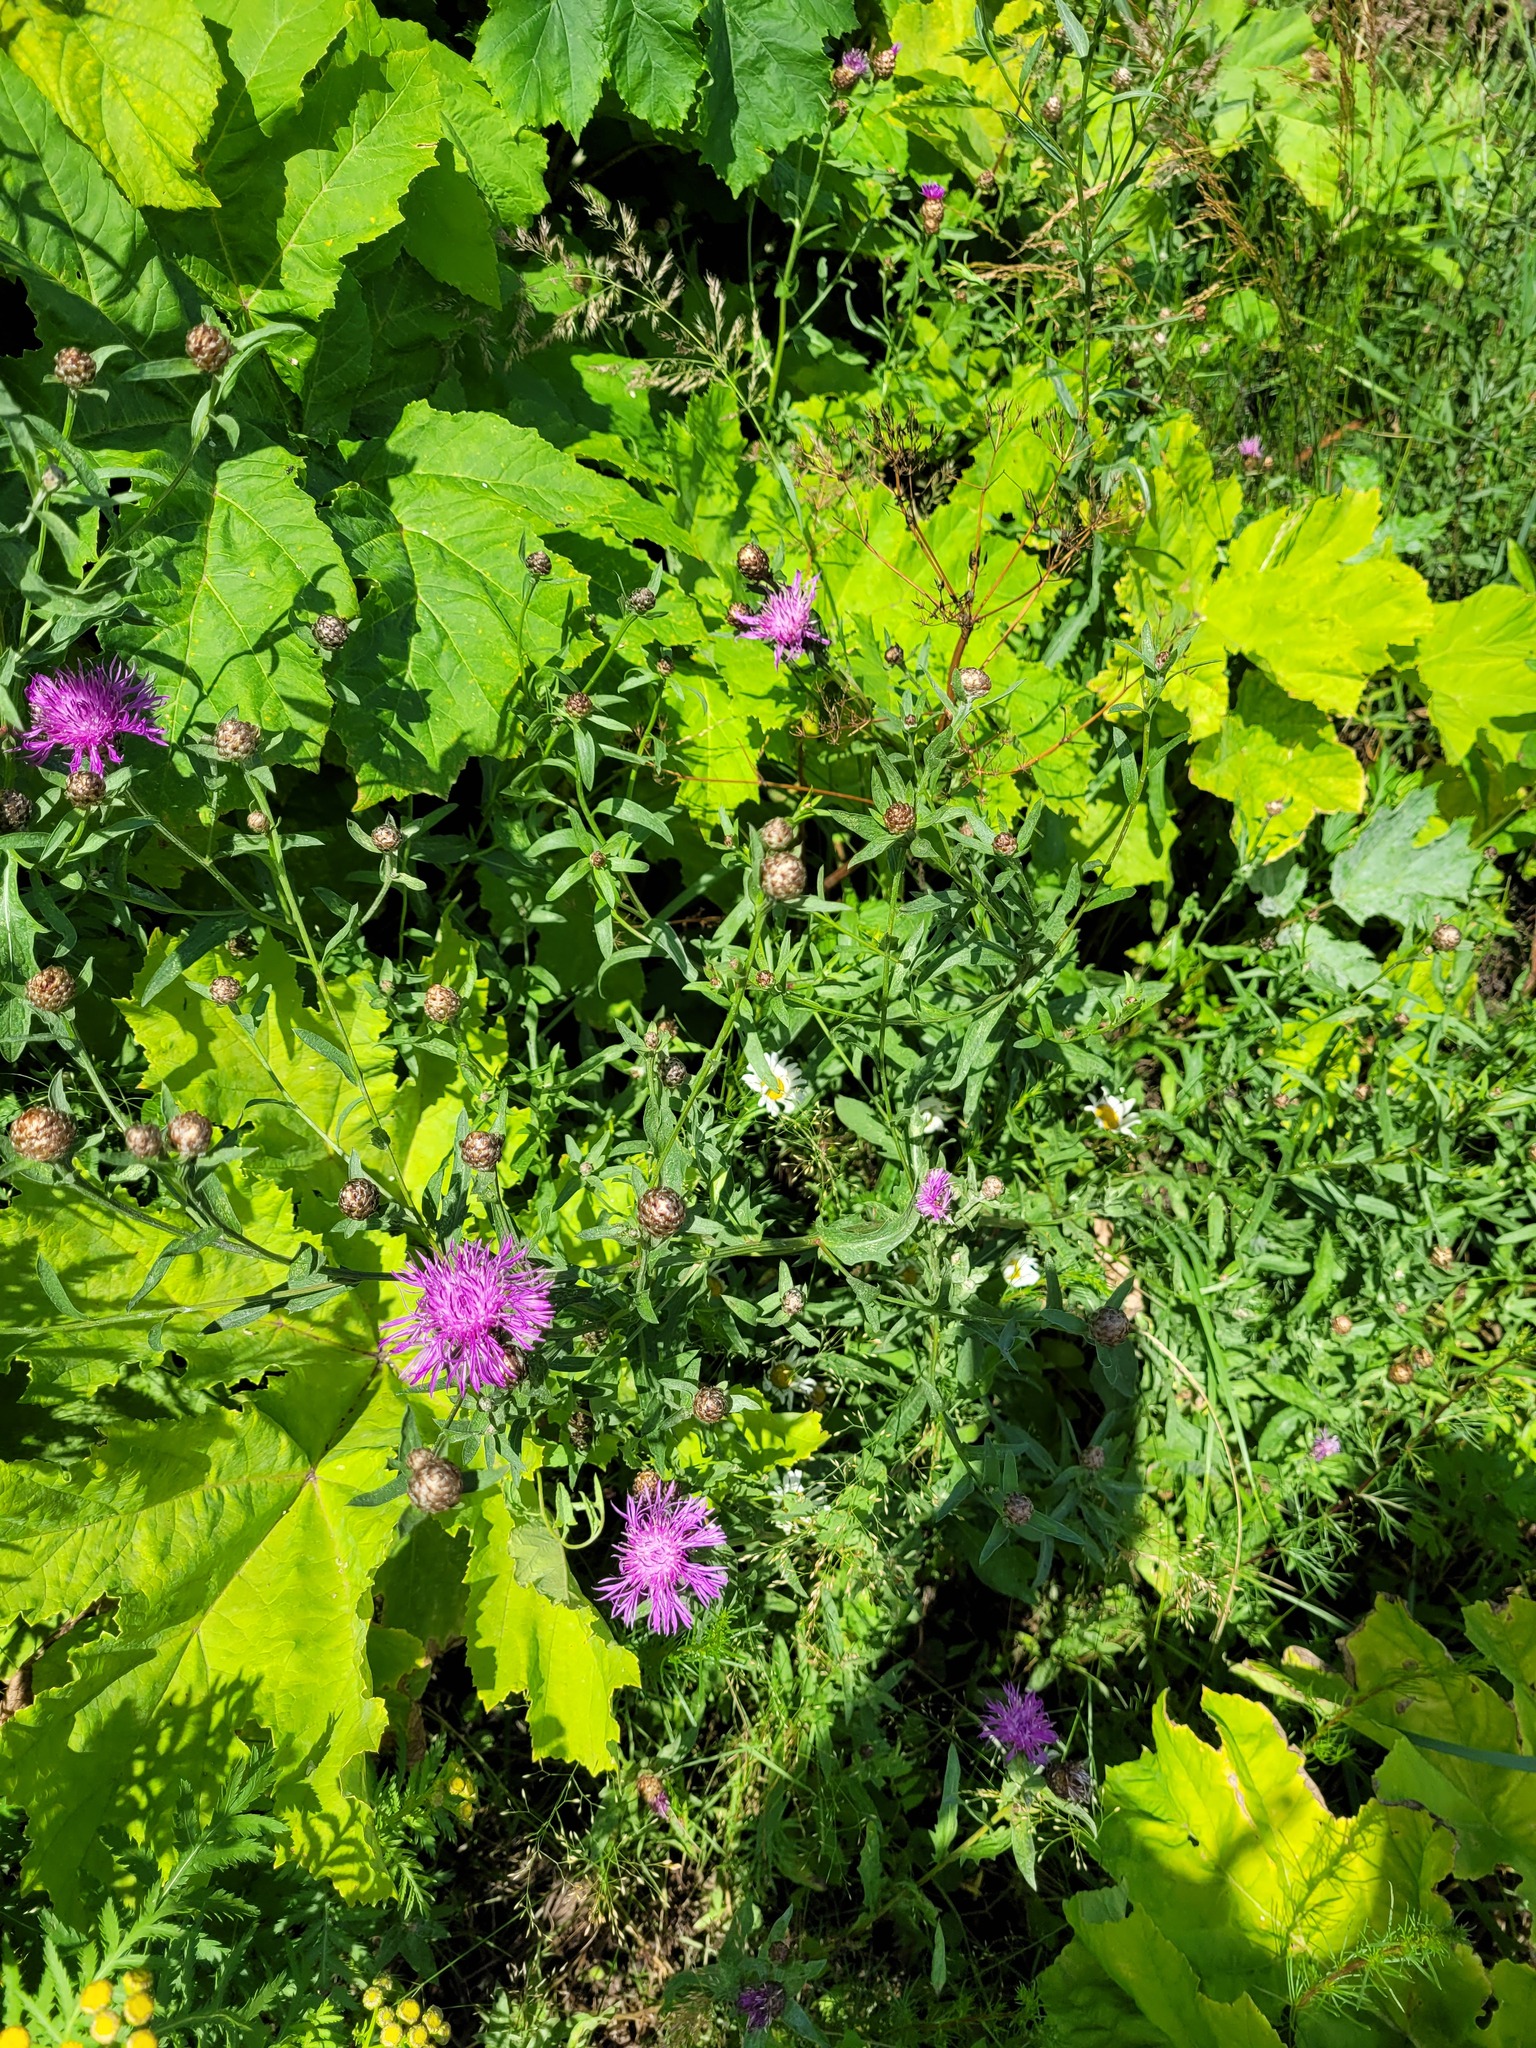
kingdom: Plantae
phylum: Tracheophyta
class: Magnoliopsida
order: Asterales
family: Asteraceae
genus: Centaurea
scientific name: Centaurea jacea
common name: Brown knapweed
